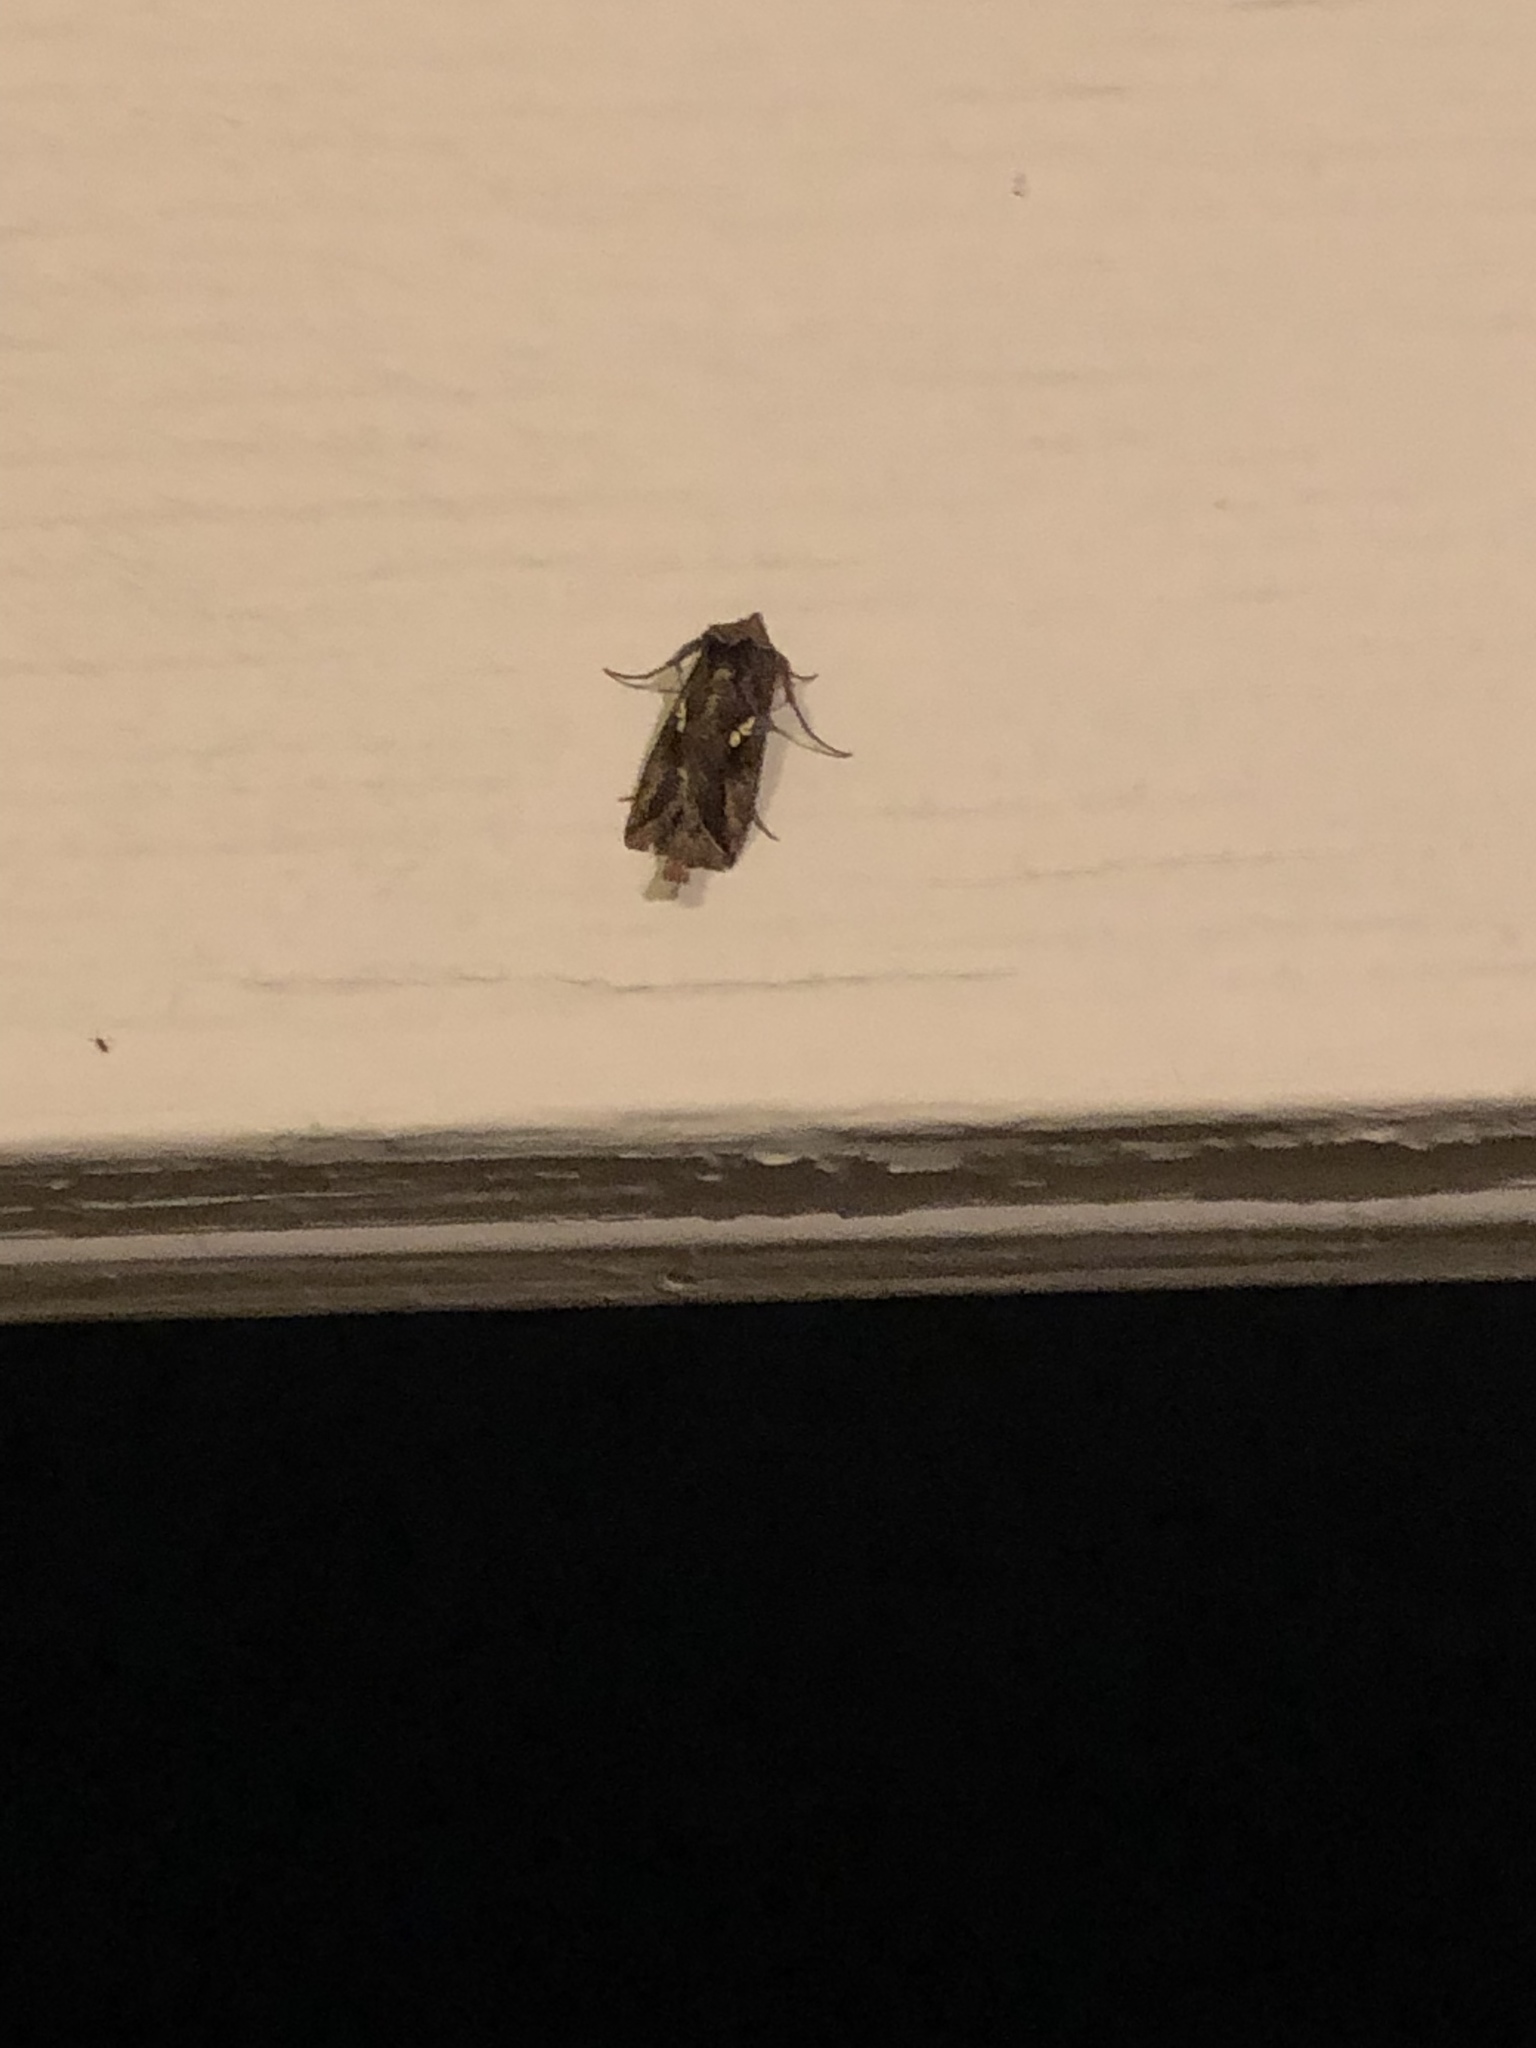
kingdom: Animalia
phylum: Arthropoda
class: Insecta
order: Lepidoptera
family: Noctuidae
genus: Autographa
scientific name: Autographa precationis
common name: Common looper moth
